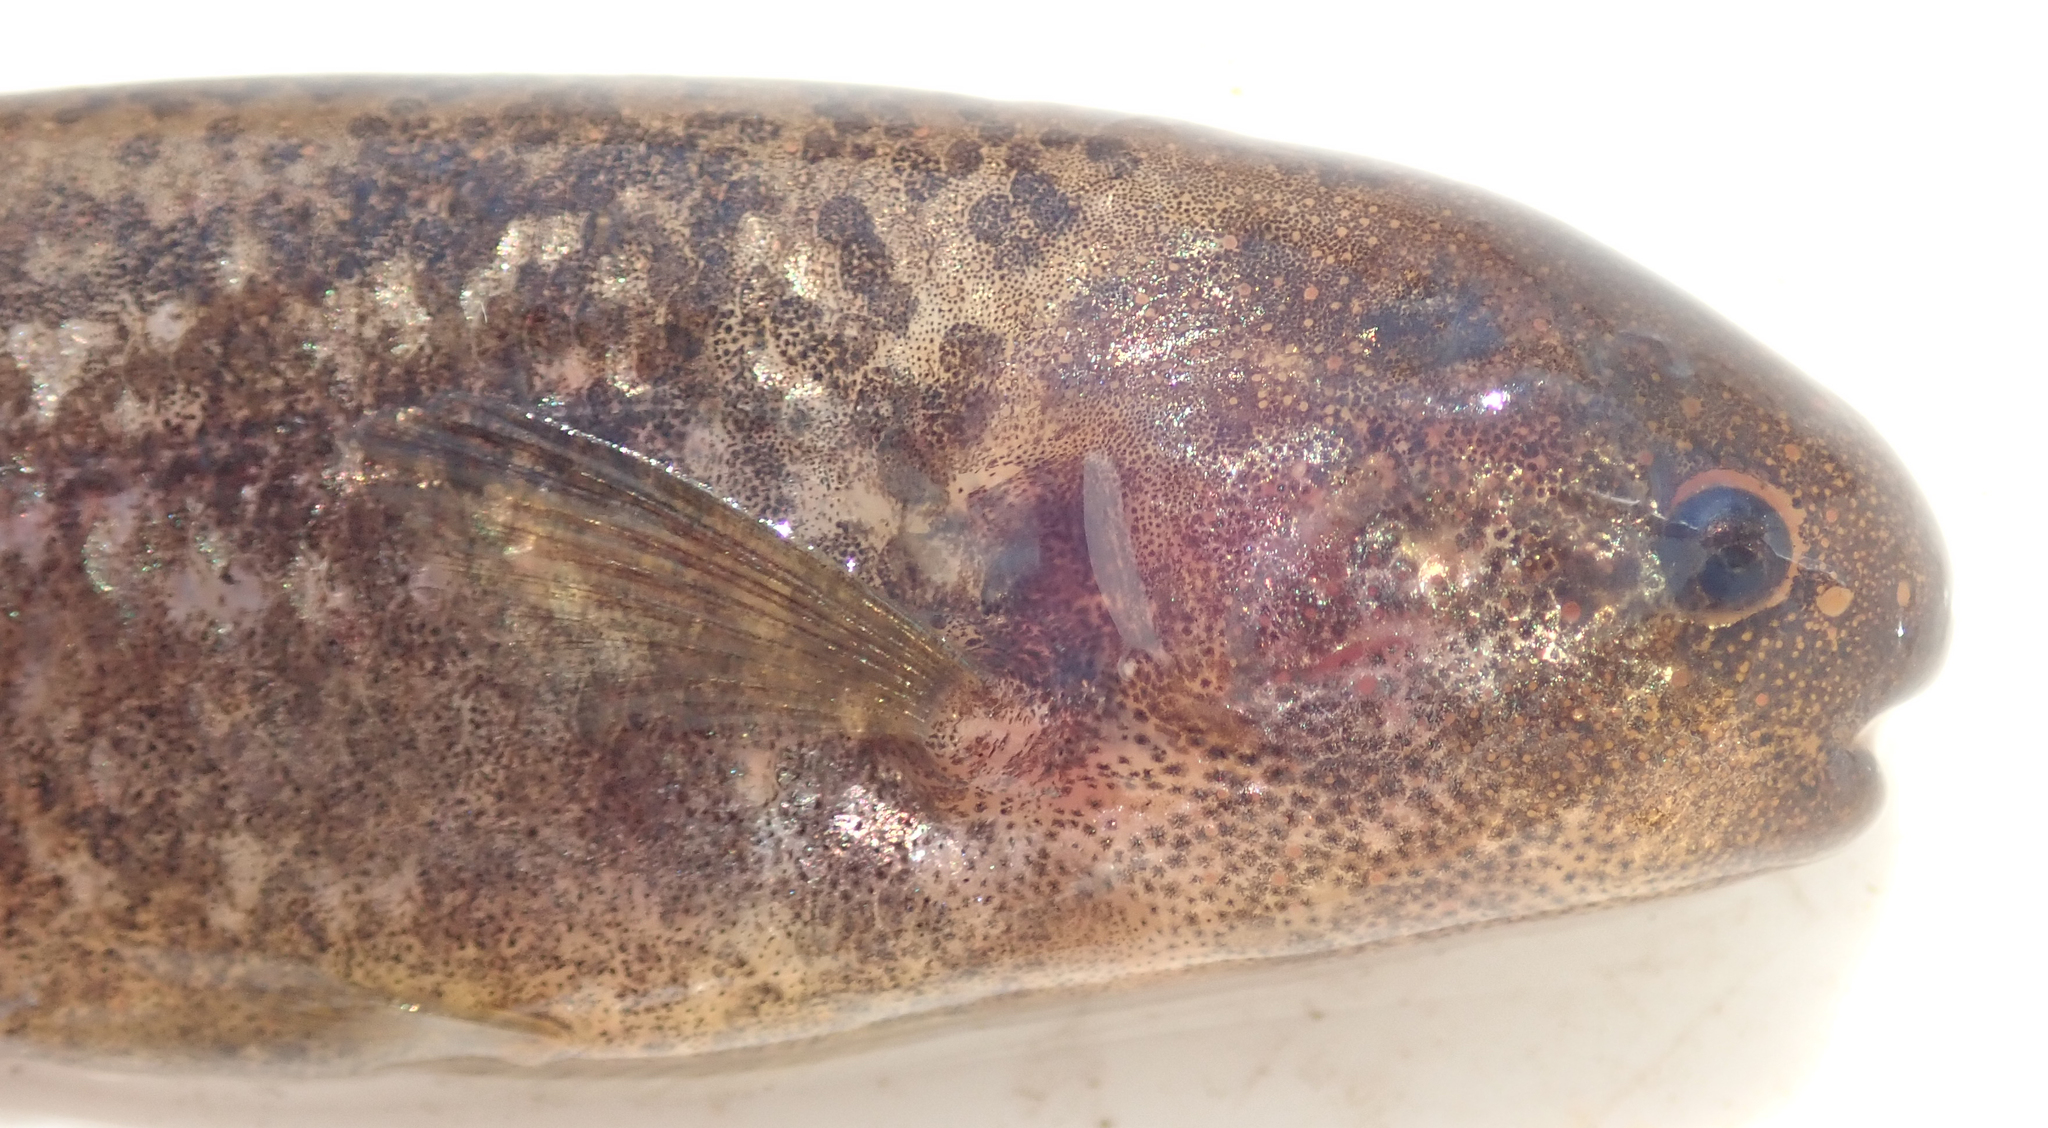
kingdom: Animalia
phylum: Chordata
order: Osteoglossiformes
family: Mormyridae
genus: Pollimyrus
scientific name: Pollimyrus cuandoensis
